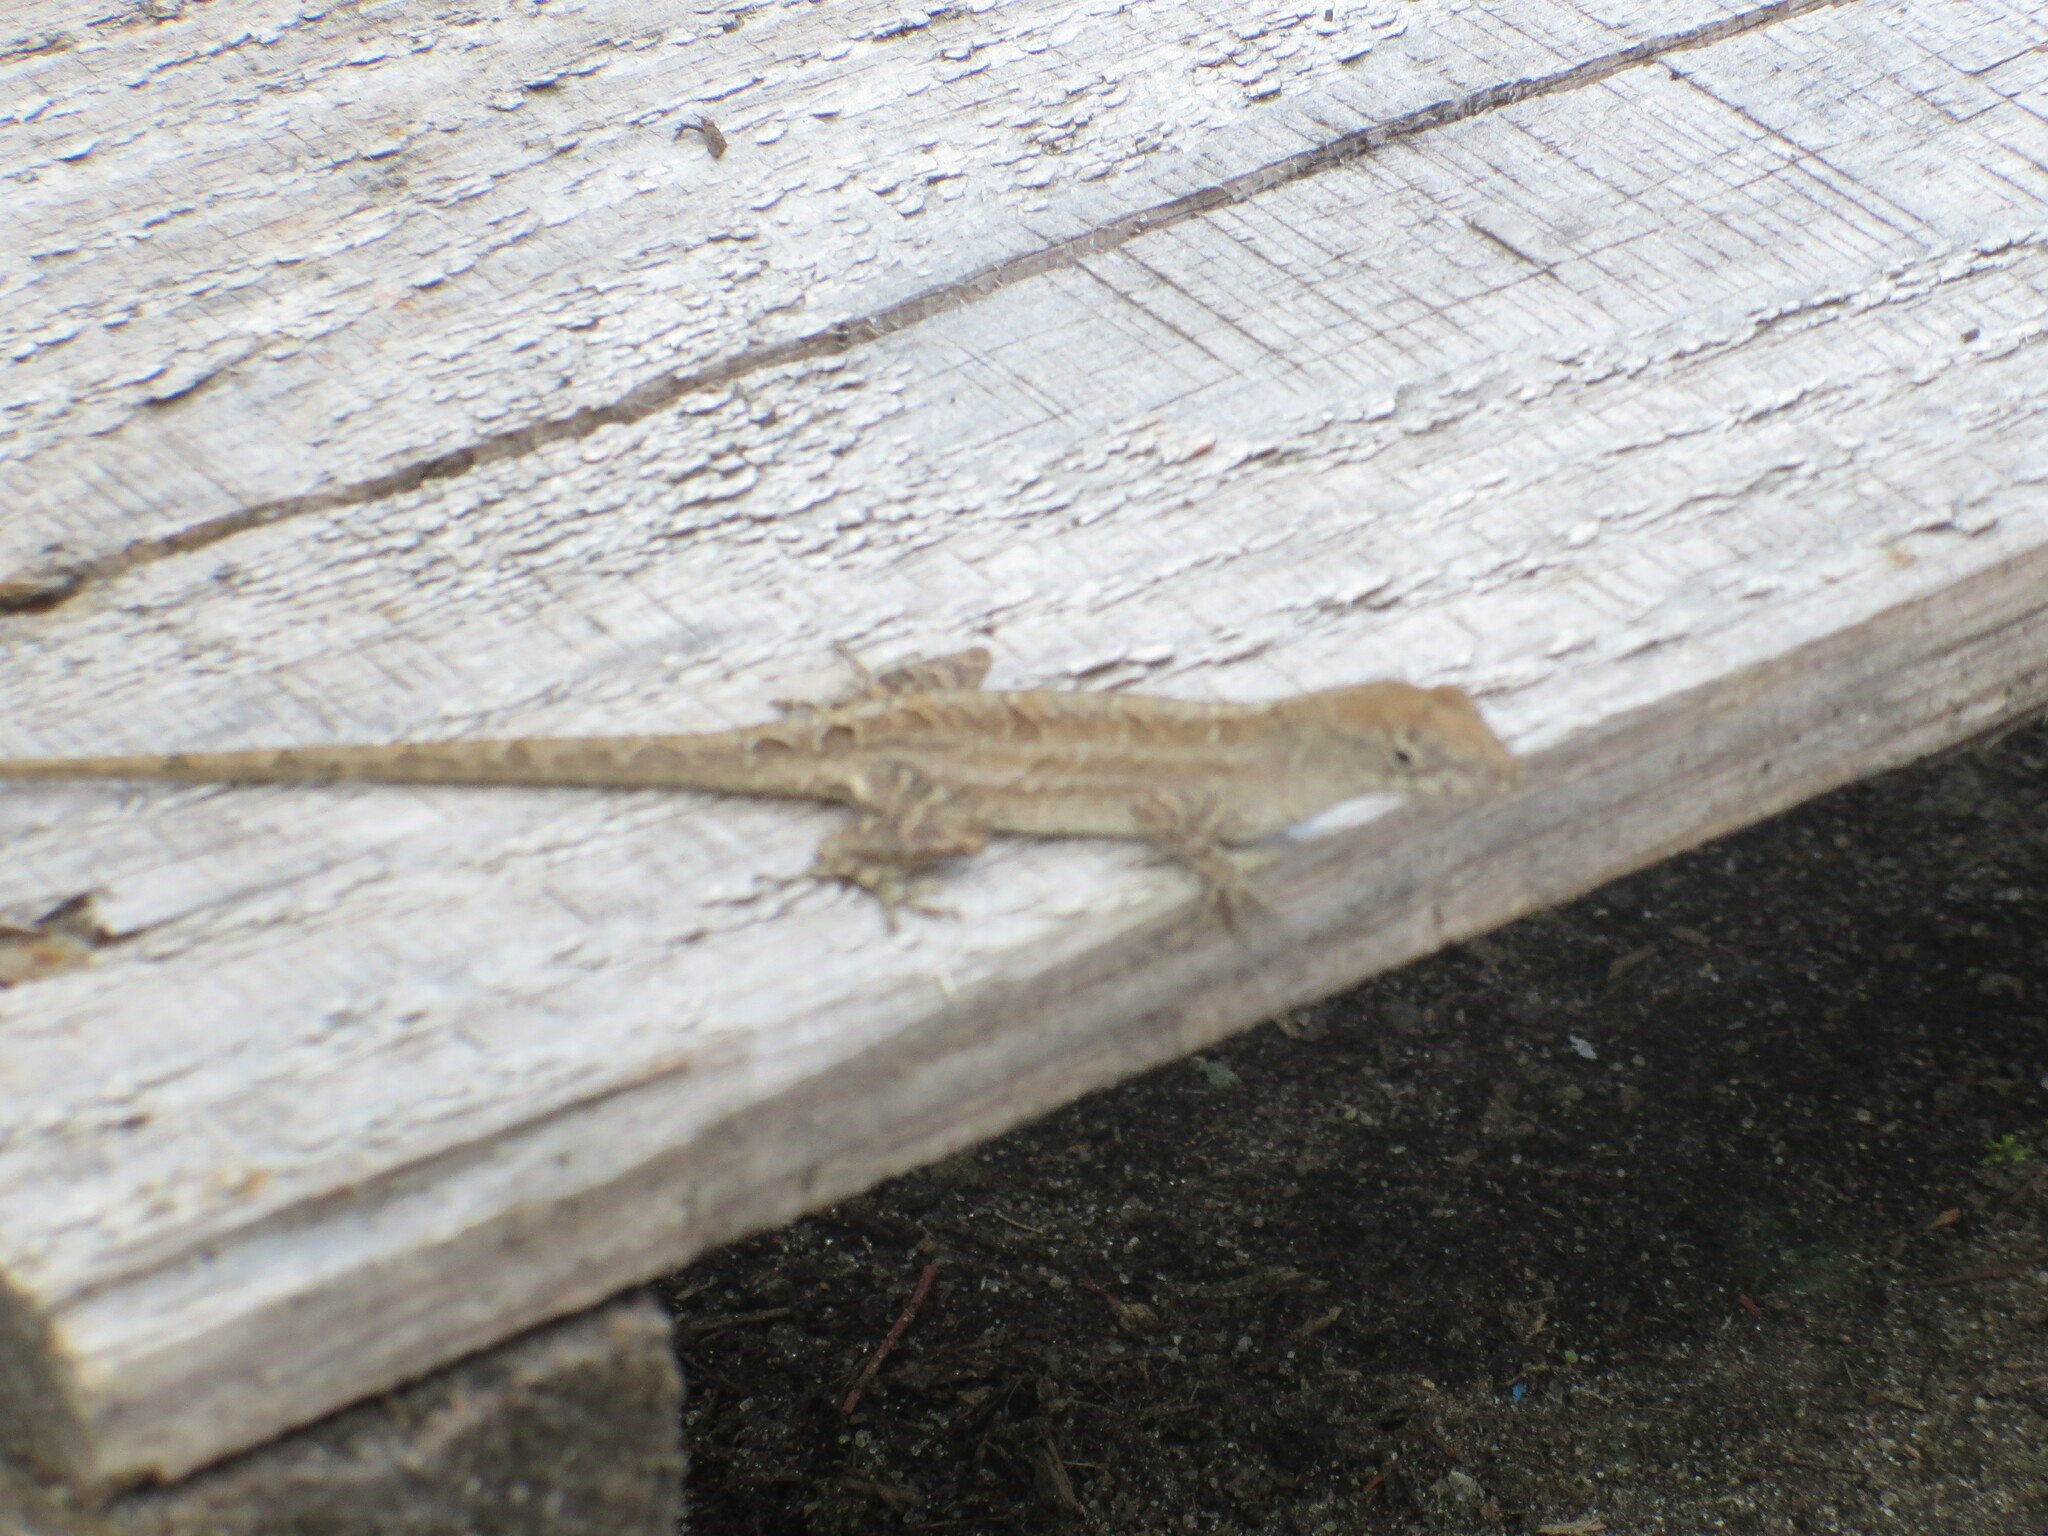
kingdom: Animalia
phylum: Chordata
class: Squamata
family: Dactyloidae
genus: Anolis
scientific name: Anolis sagrei
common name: Brown anole
